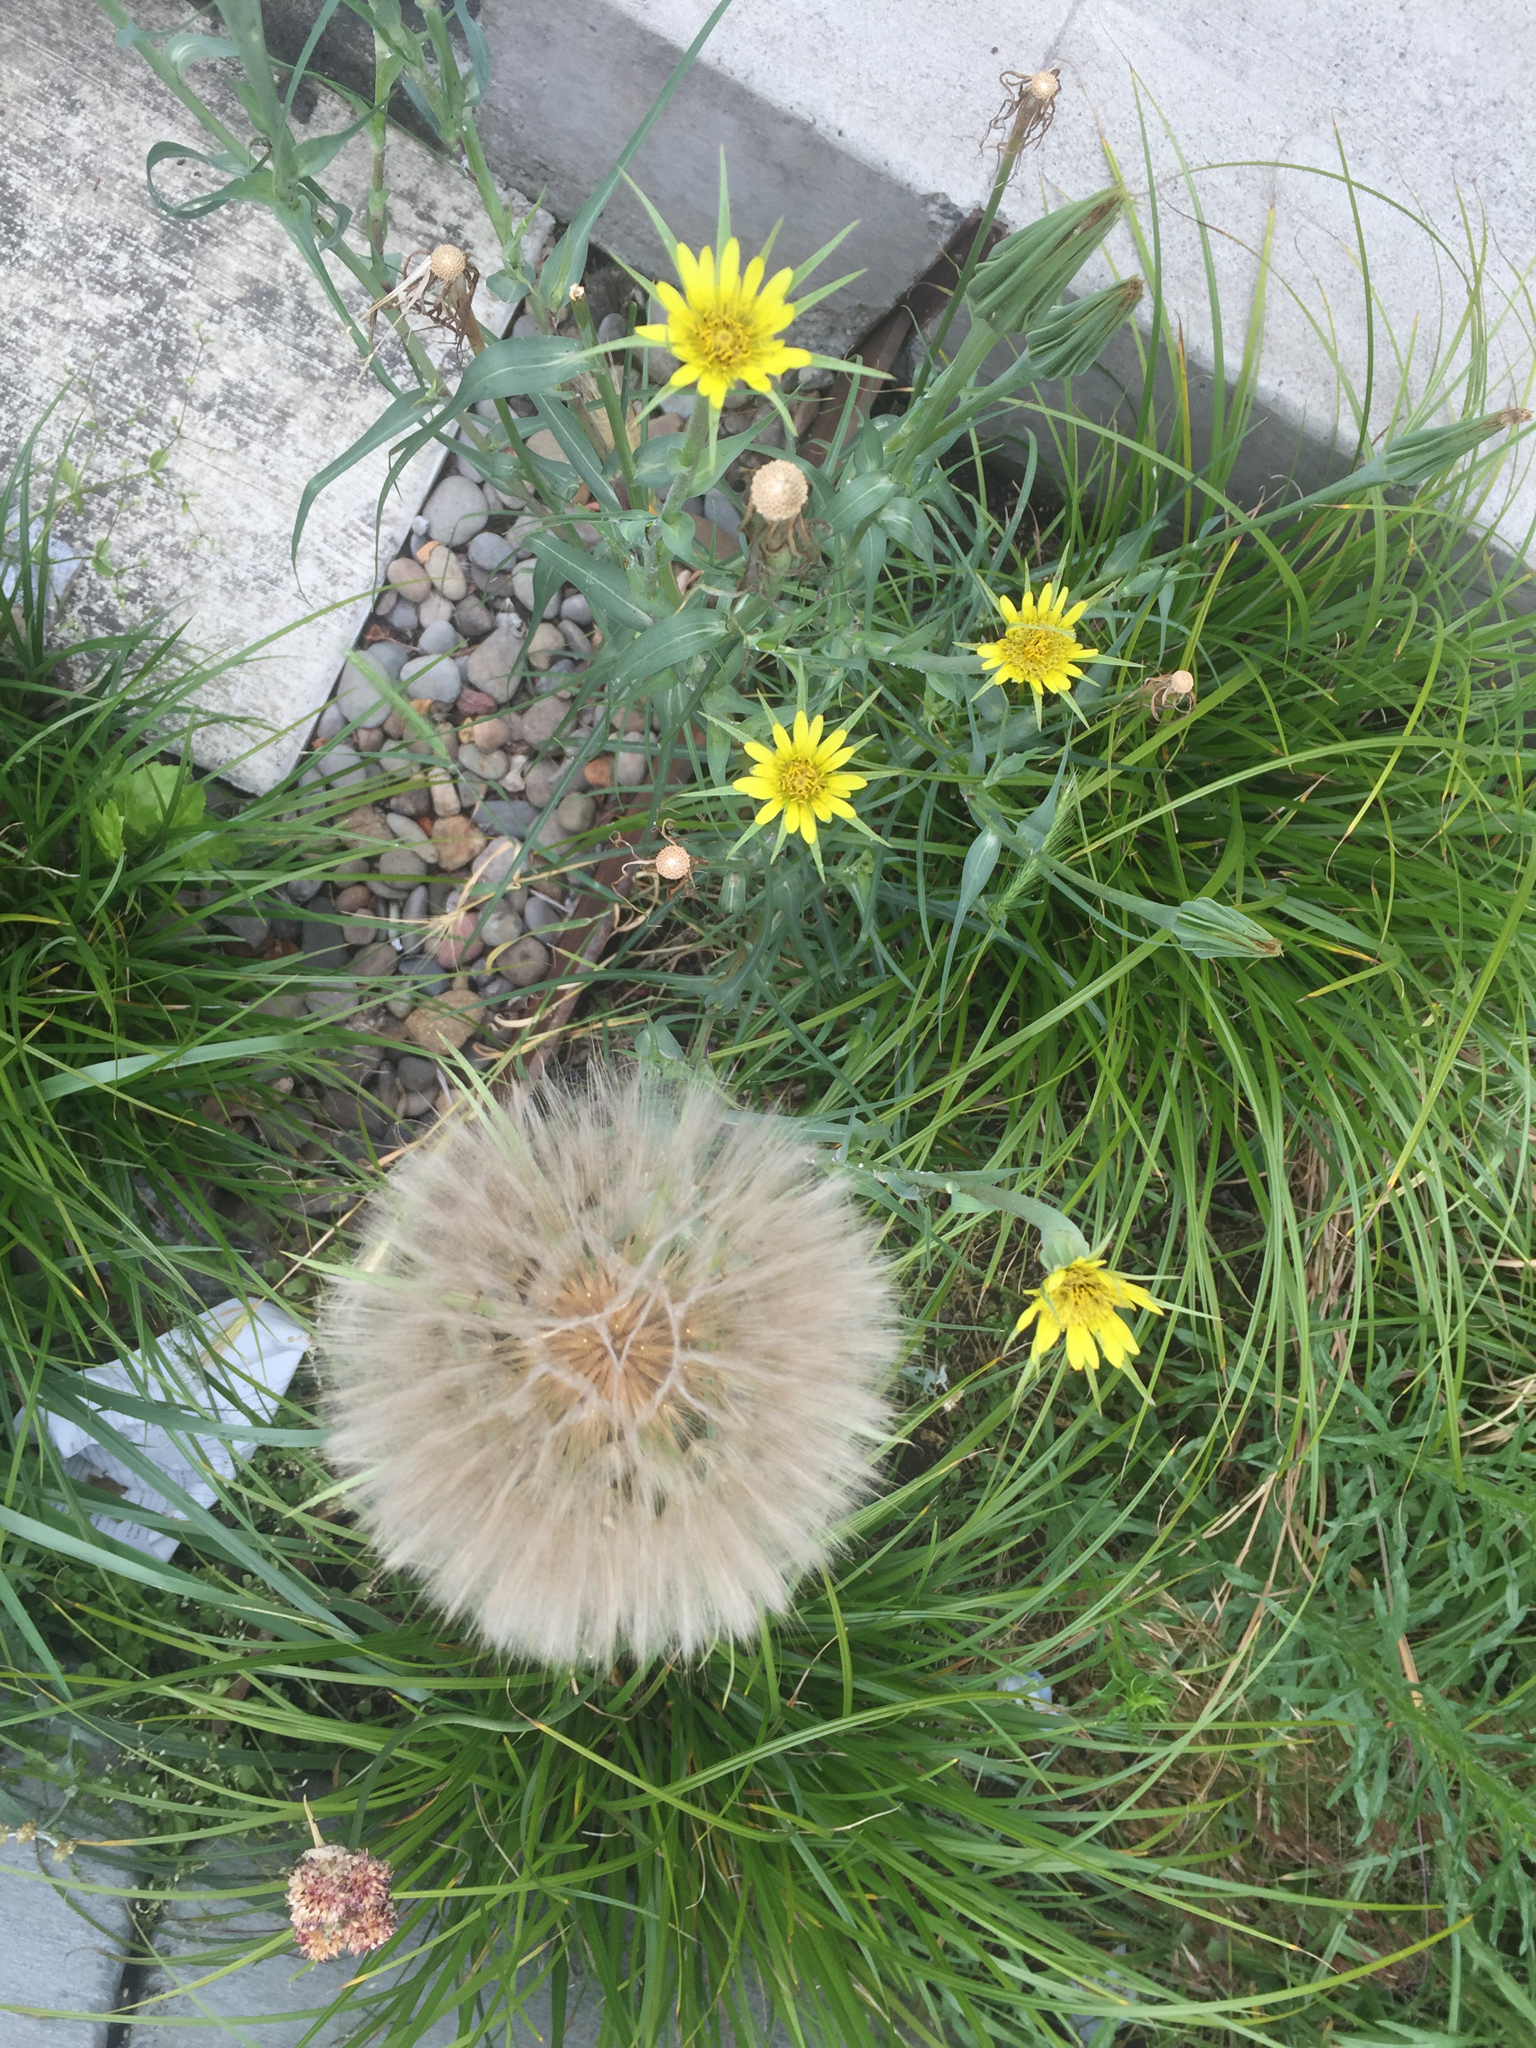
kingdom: Plantae
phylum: Tracheophyta
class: Magnoliopsida
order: Asterales
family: Asteraceae
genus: Tragopogon
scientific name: Tragopogon dubius
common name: Yellow salsify
